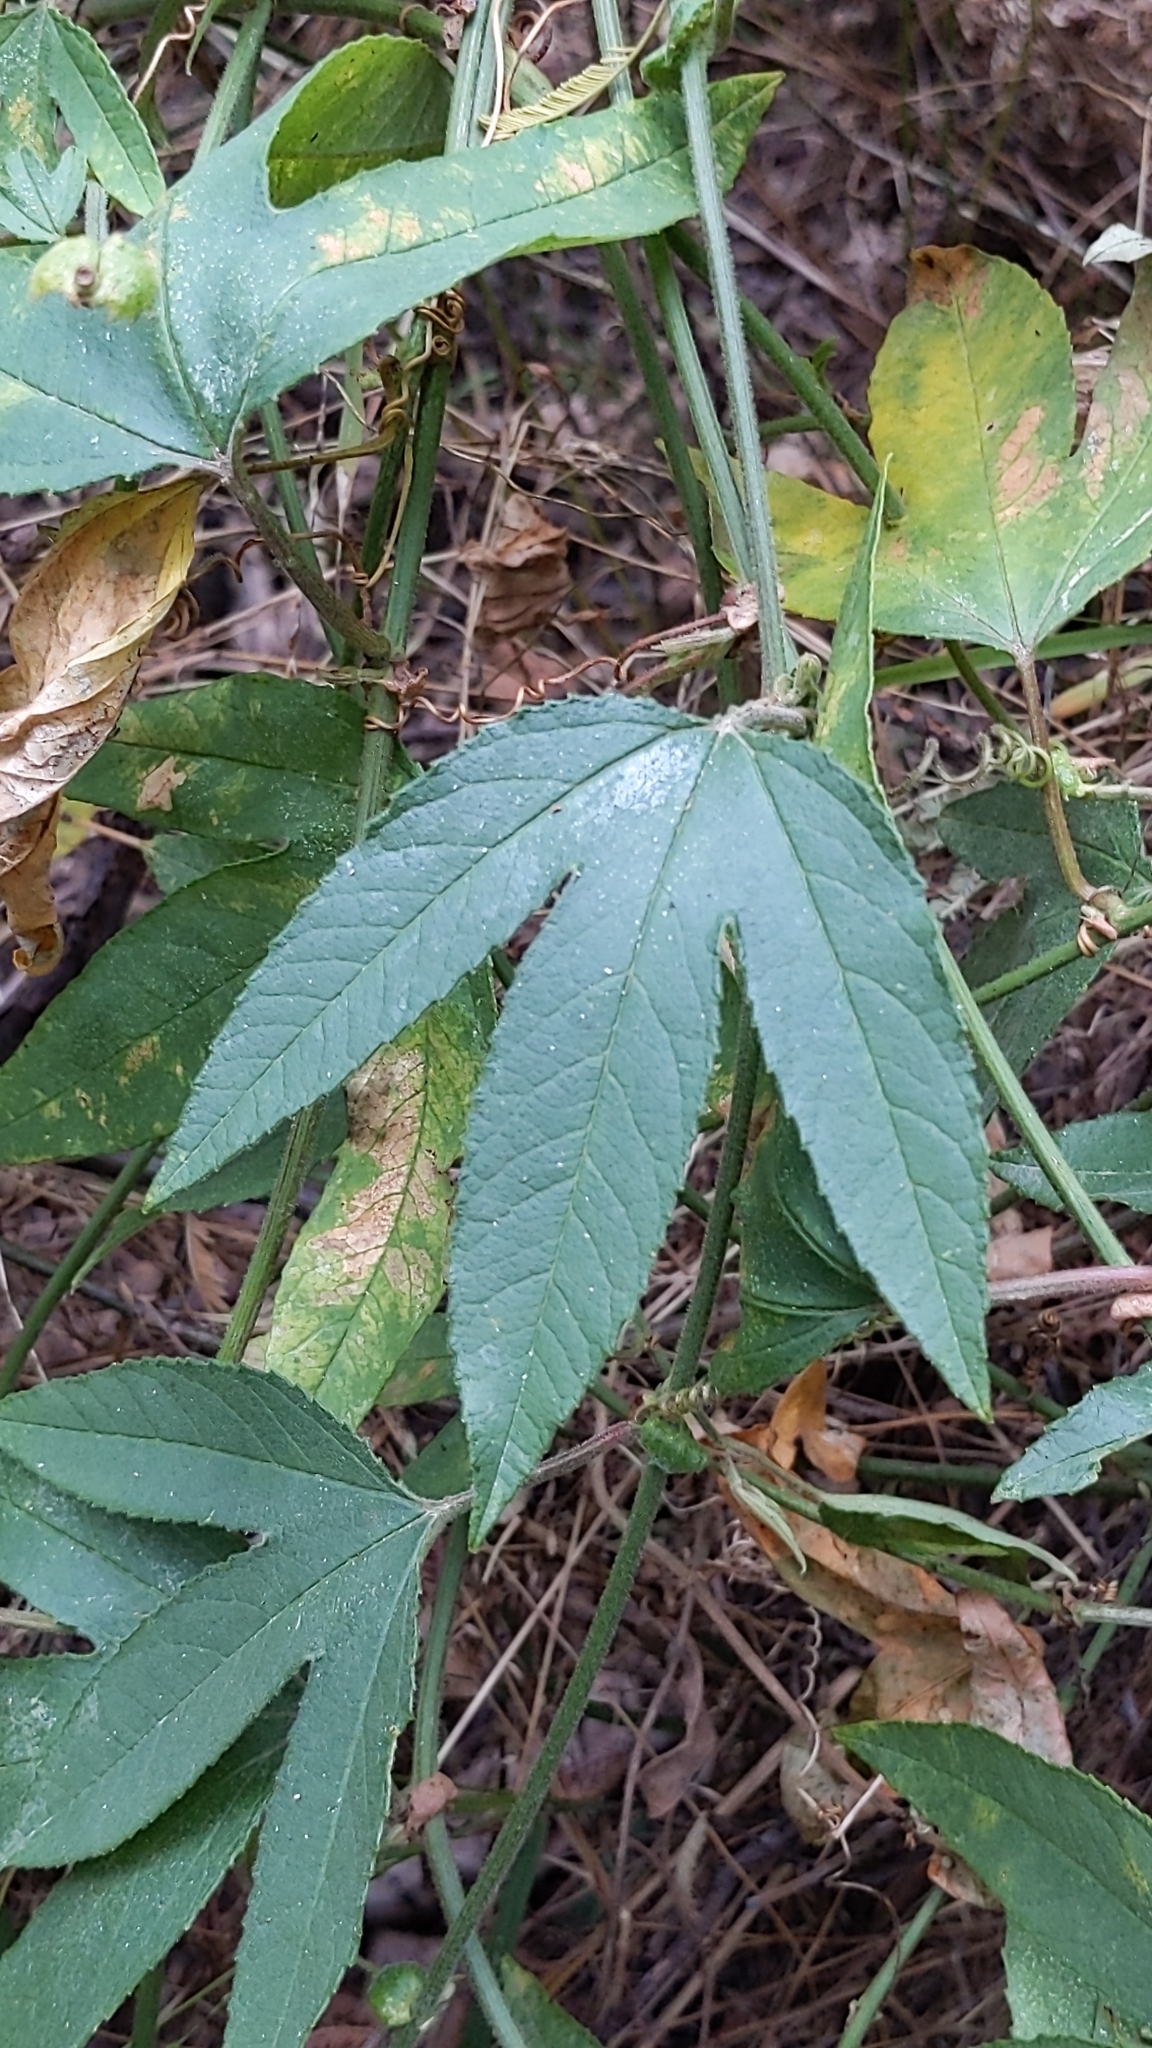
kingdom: Plantae
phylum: Tracheophyta
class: Magnoliopsida
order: Malpighiales
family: Passifloraceae
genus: Passiflora
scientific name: Passiflora tripartita
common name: Banana poka
